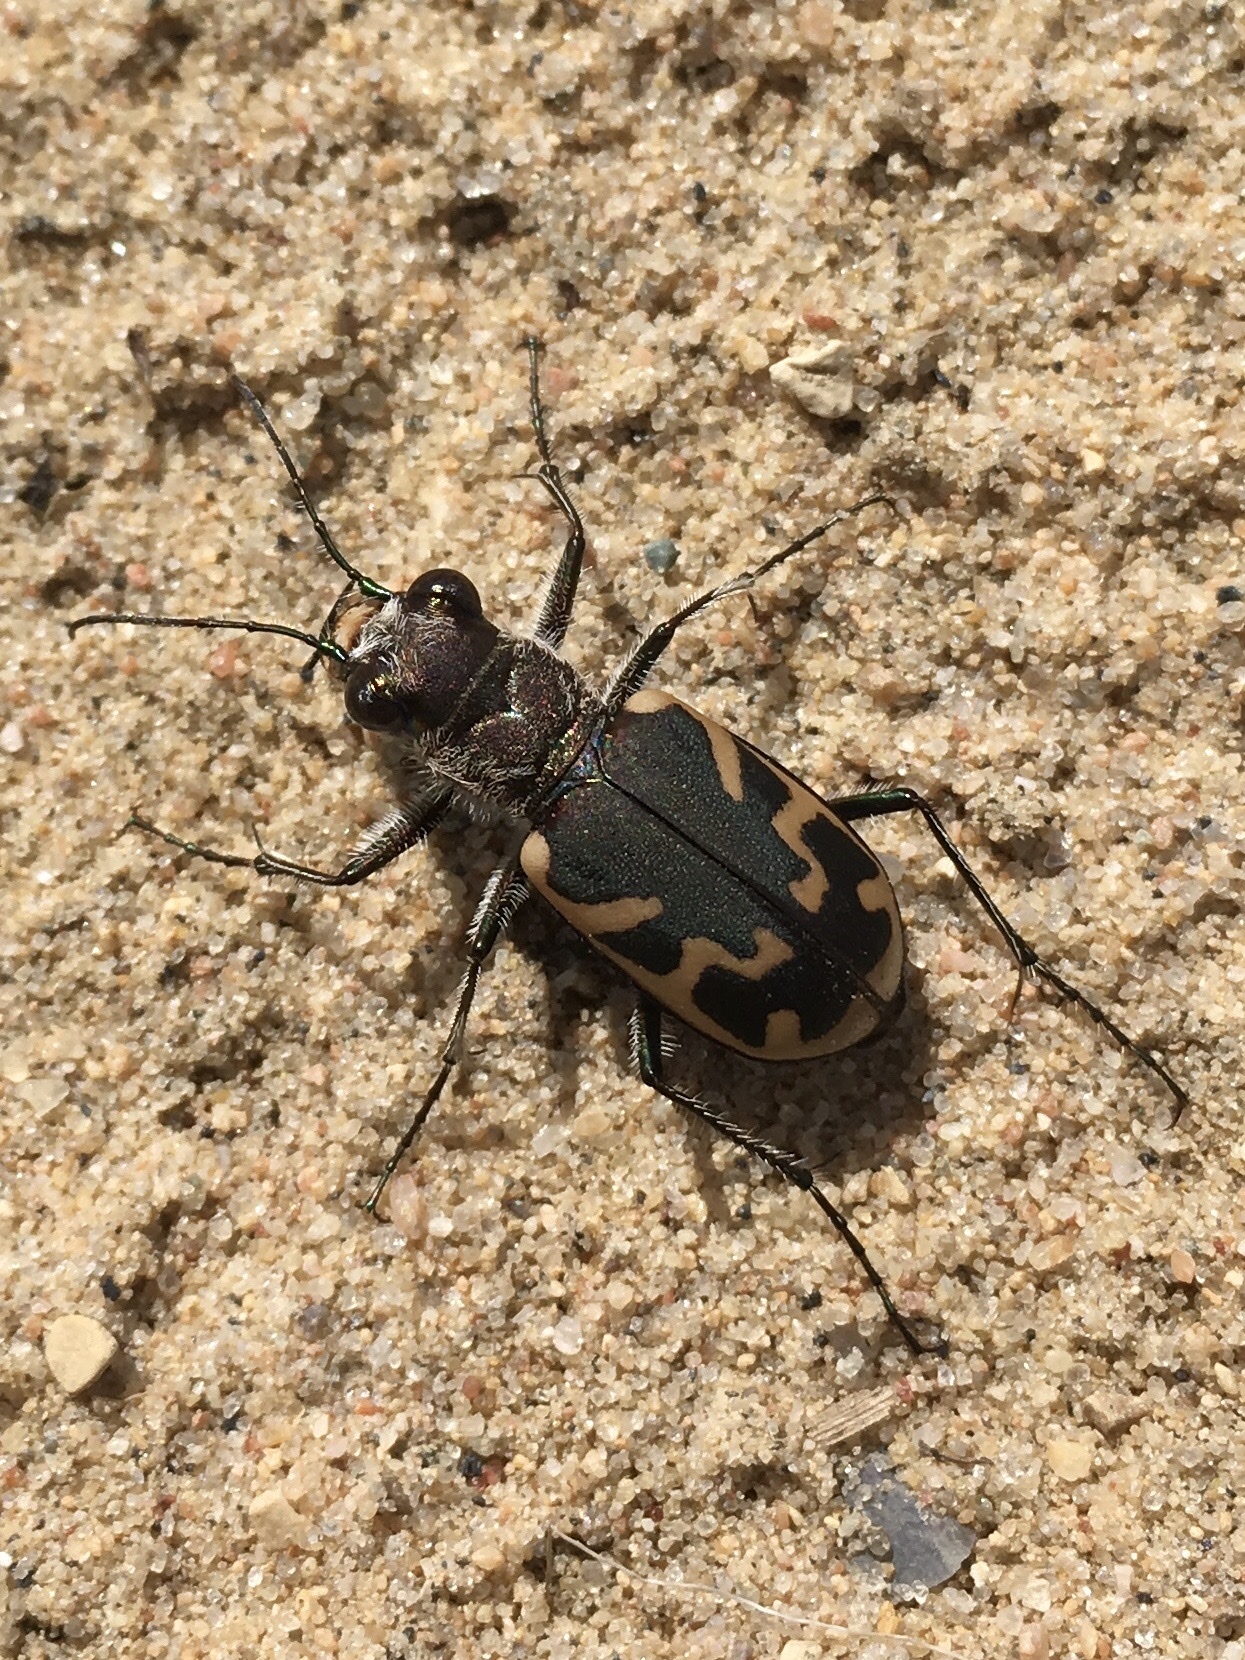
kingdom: Animalia
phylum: Arthropoda
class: Insecta
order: Coleoptera
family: Carabidae
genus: Cicindela
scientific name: Cicindela formosa
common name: Big sand tiger beetle
